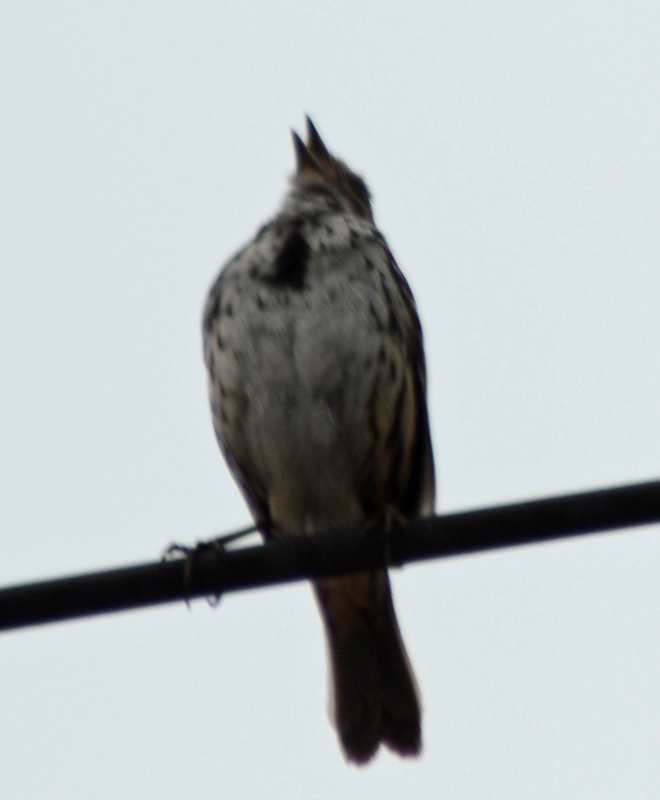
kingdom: Animalia
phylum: Chordata
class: Aves
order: Passeriformes
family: Passerellidae
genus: Melospiza
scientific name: Melospiza melodia
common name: Song sparrow
